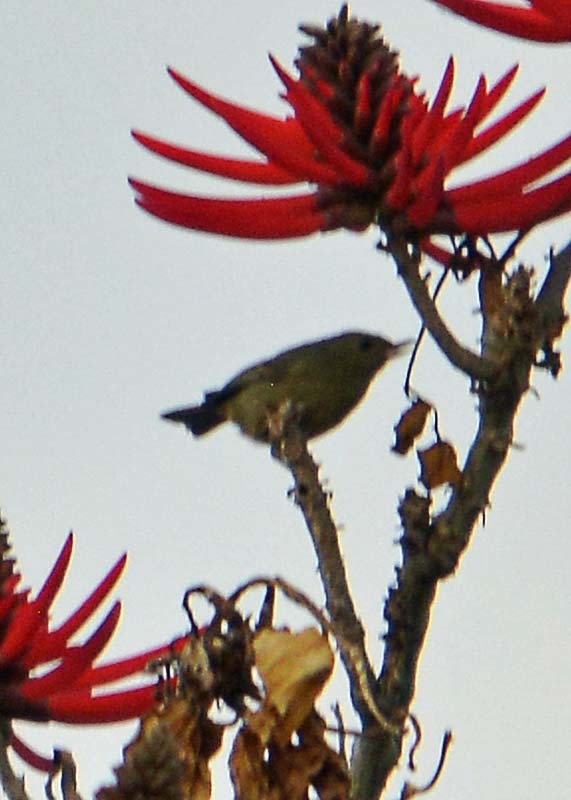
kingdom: Animalia
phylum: Chordata
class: Aves
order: Passeriformes
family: Thraupidae
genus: Diglossa
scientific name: Diglossa baritula
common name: Cinnamon-bellied flowerpiercer
